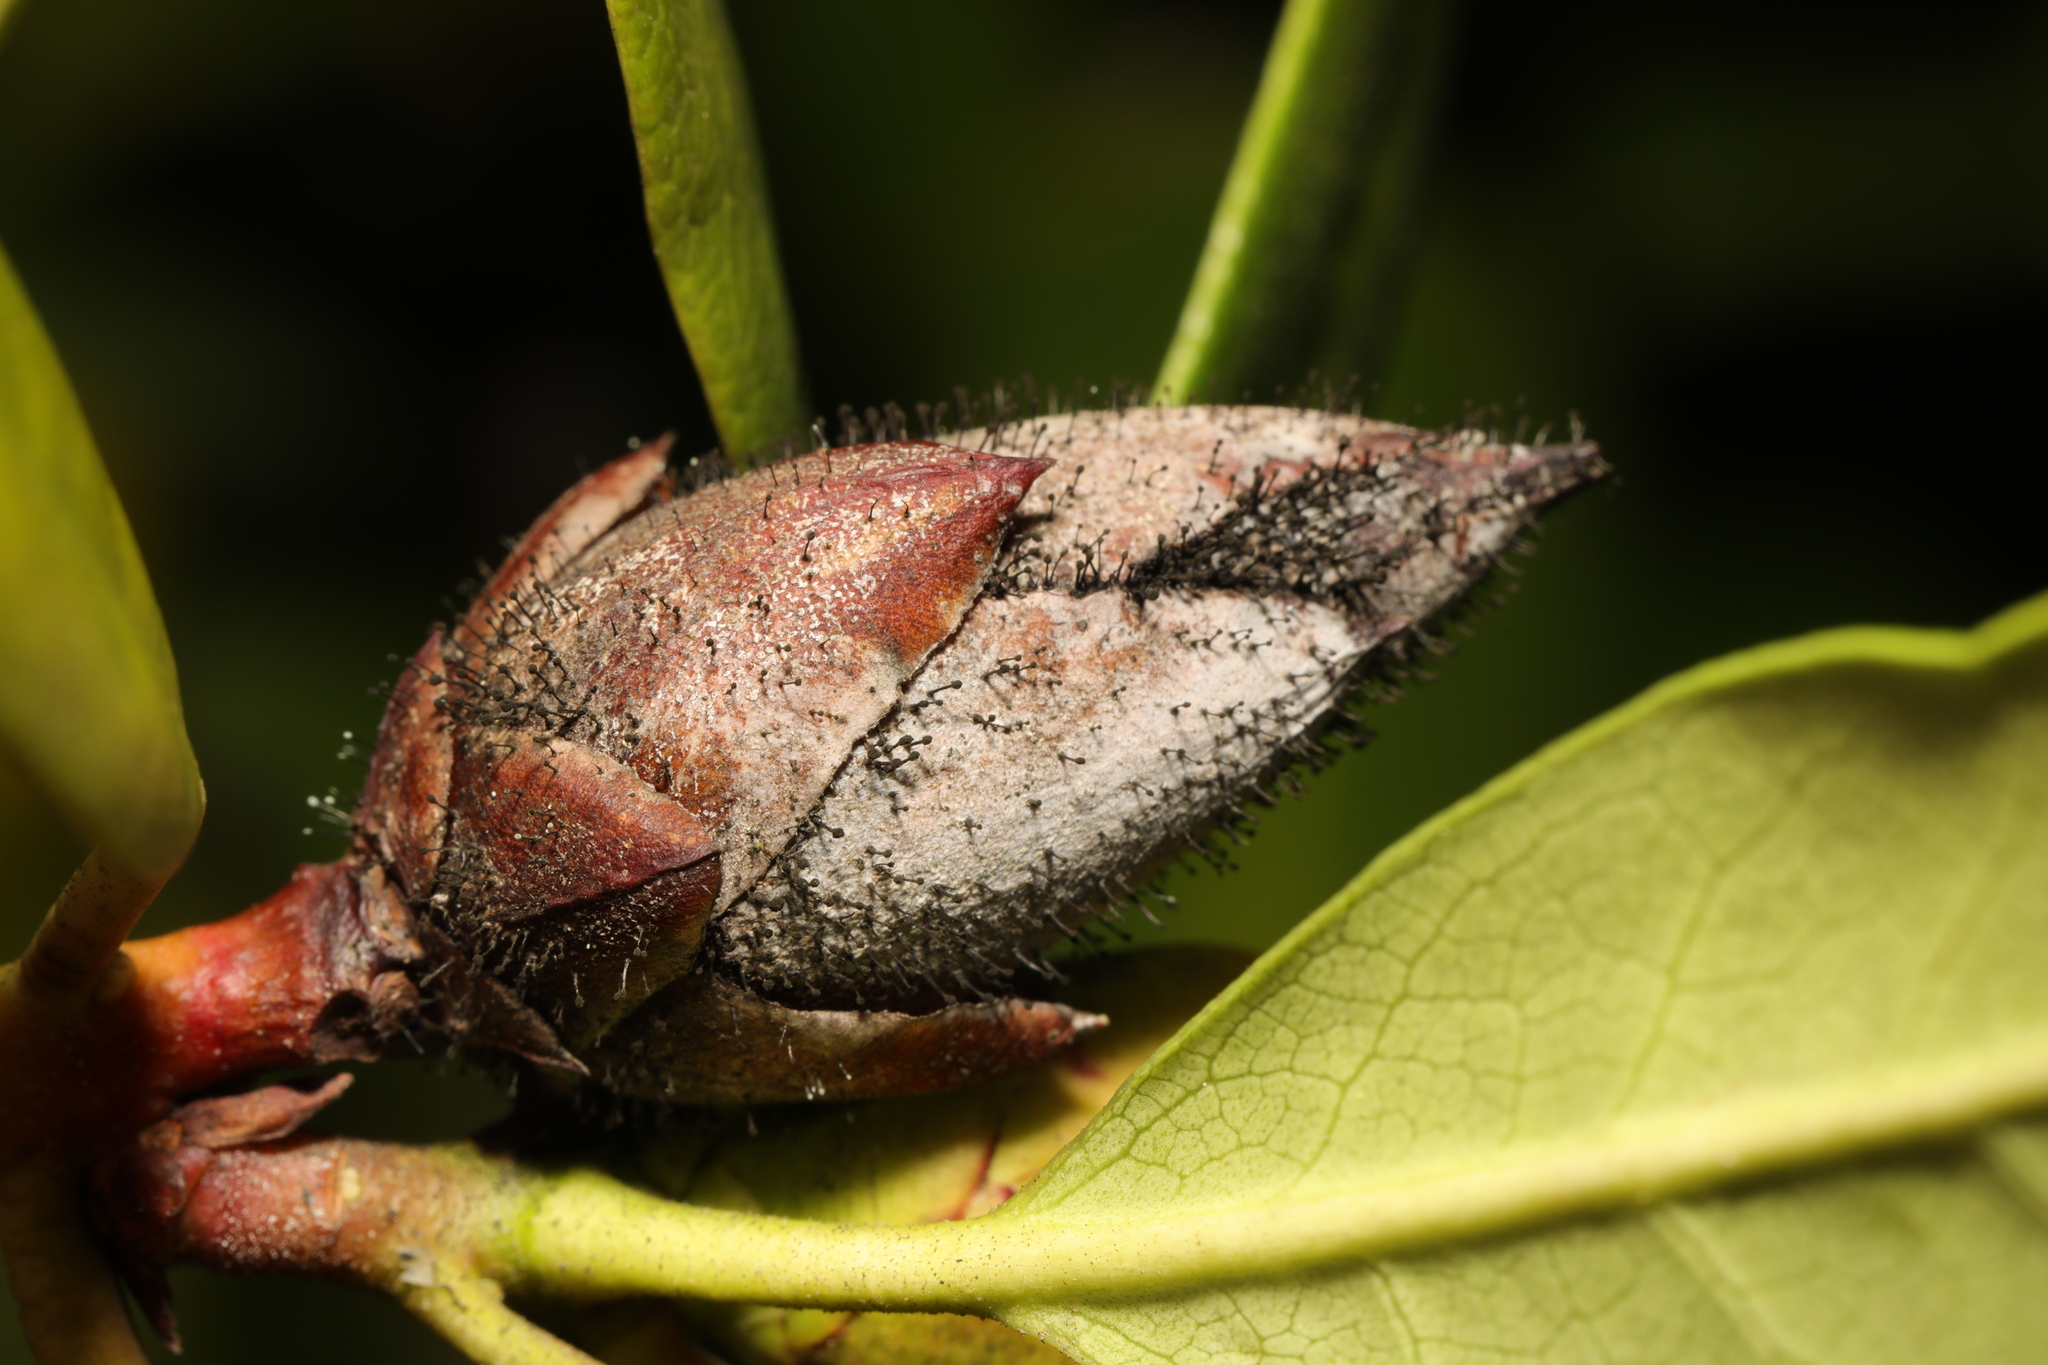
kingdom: Fungi
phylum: Ascomycota
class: Dothideomycetes
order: Pleosporales
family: Melanommataceae
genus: Seifertia
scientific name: Seifertia azaleae
